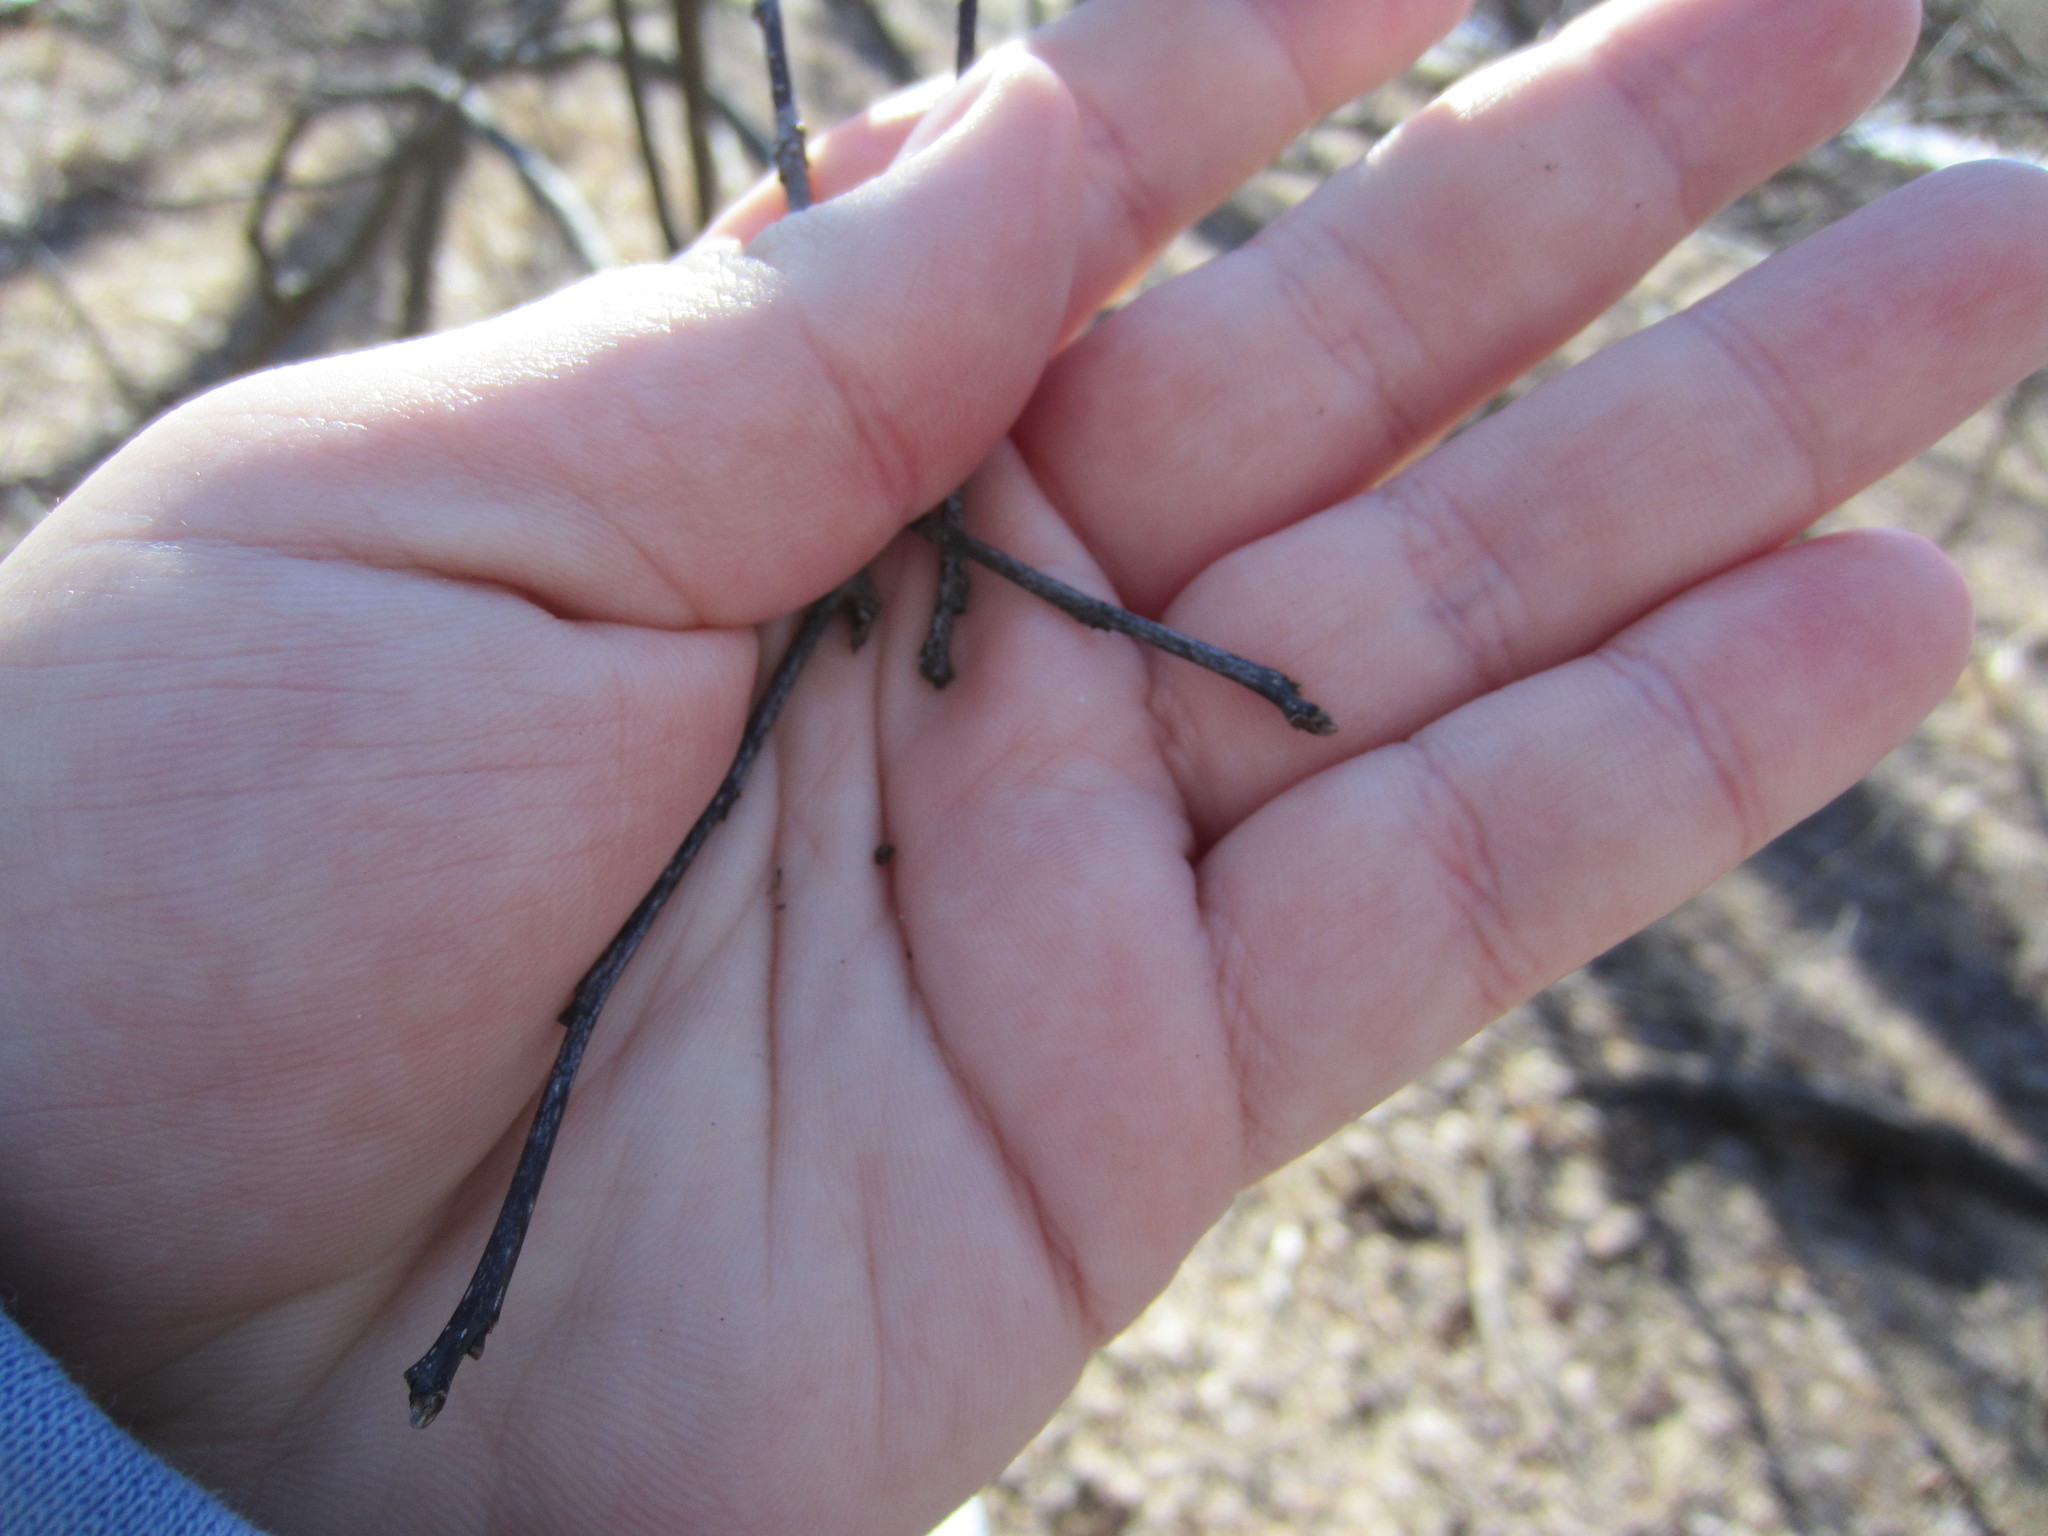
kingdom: Plantae
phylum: Tracheophyta
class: Magnoliopsida
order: Aquifoliales
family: Aquifoliaceae
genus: Ilex
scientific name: Ilex verticillata
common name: Virginia winterberry
